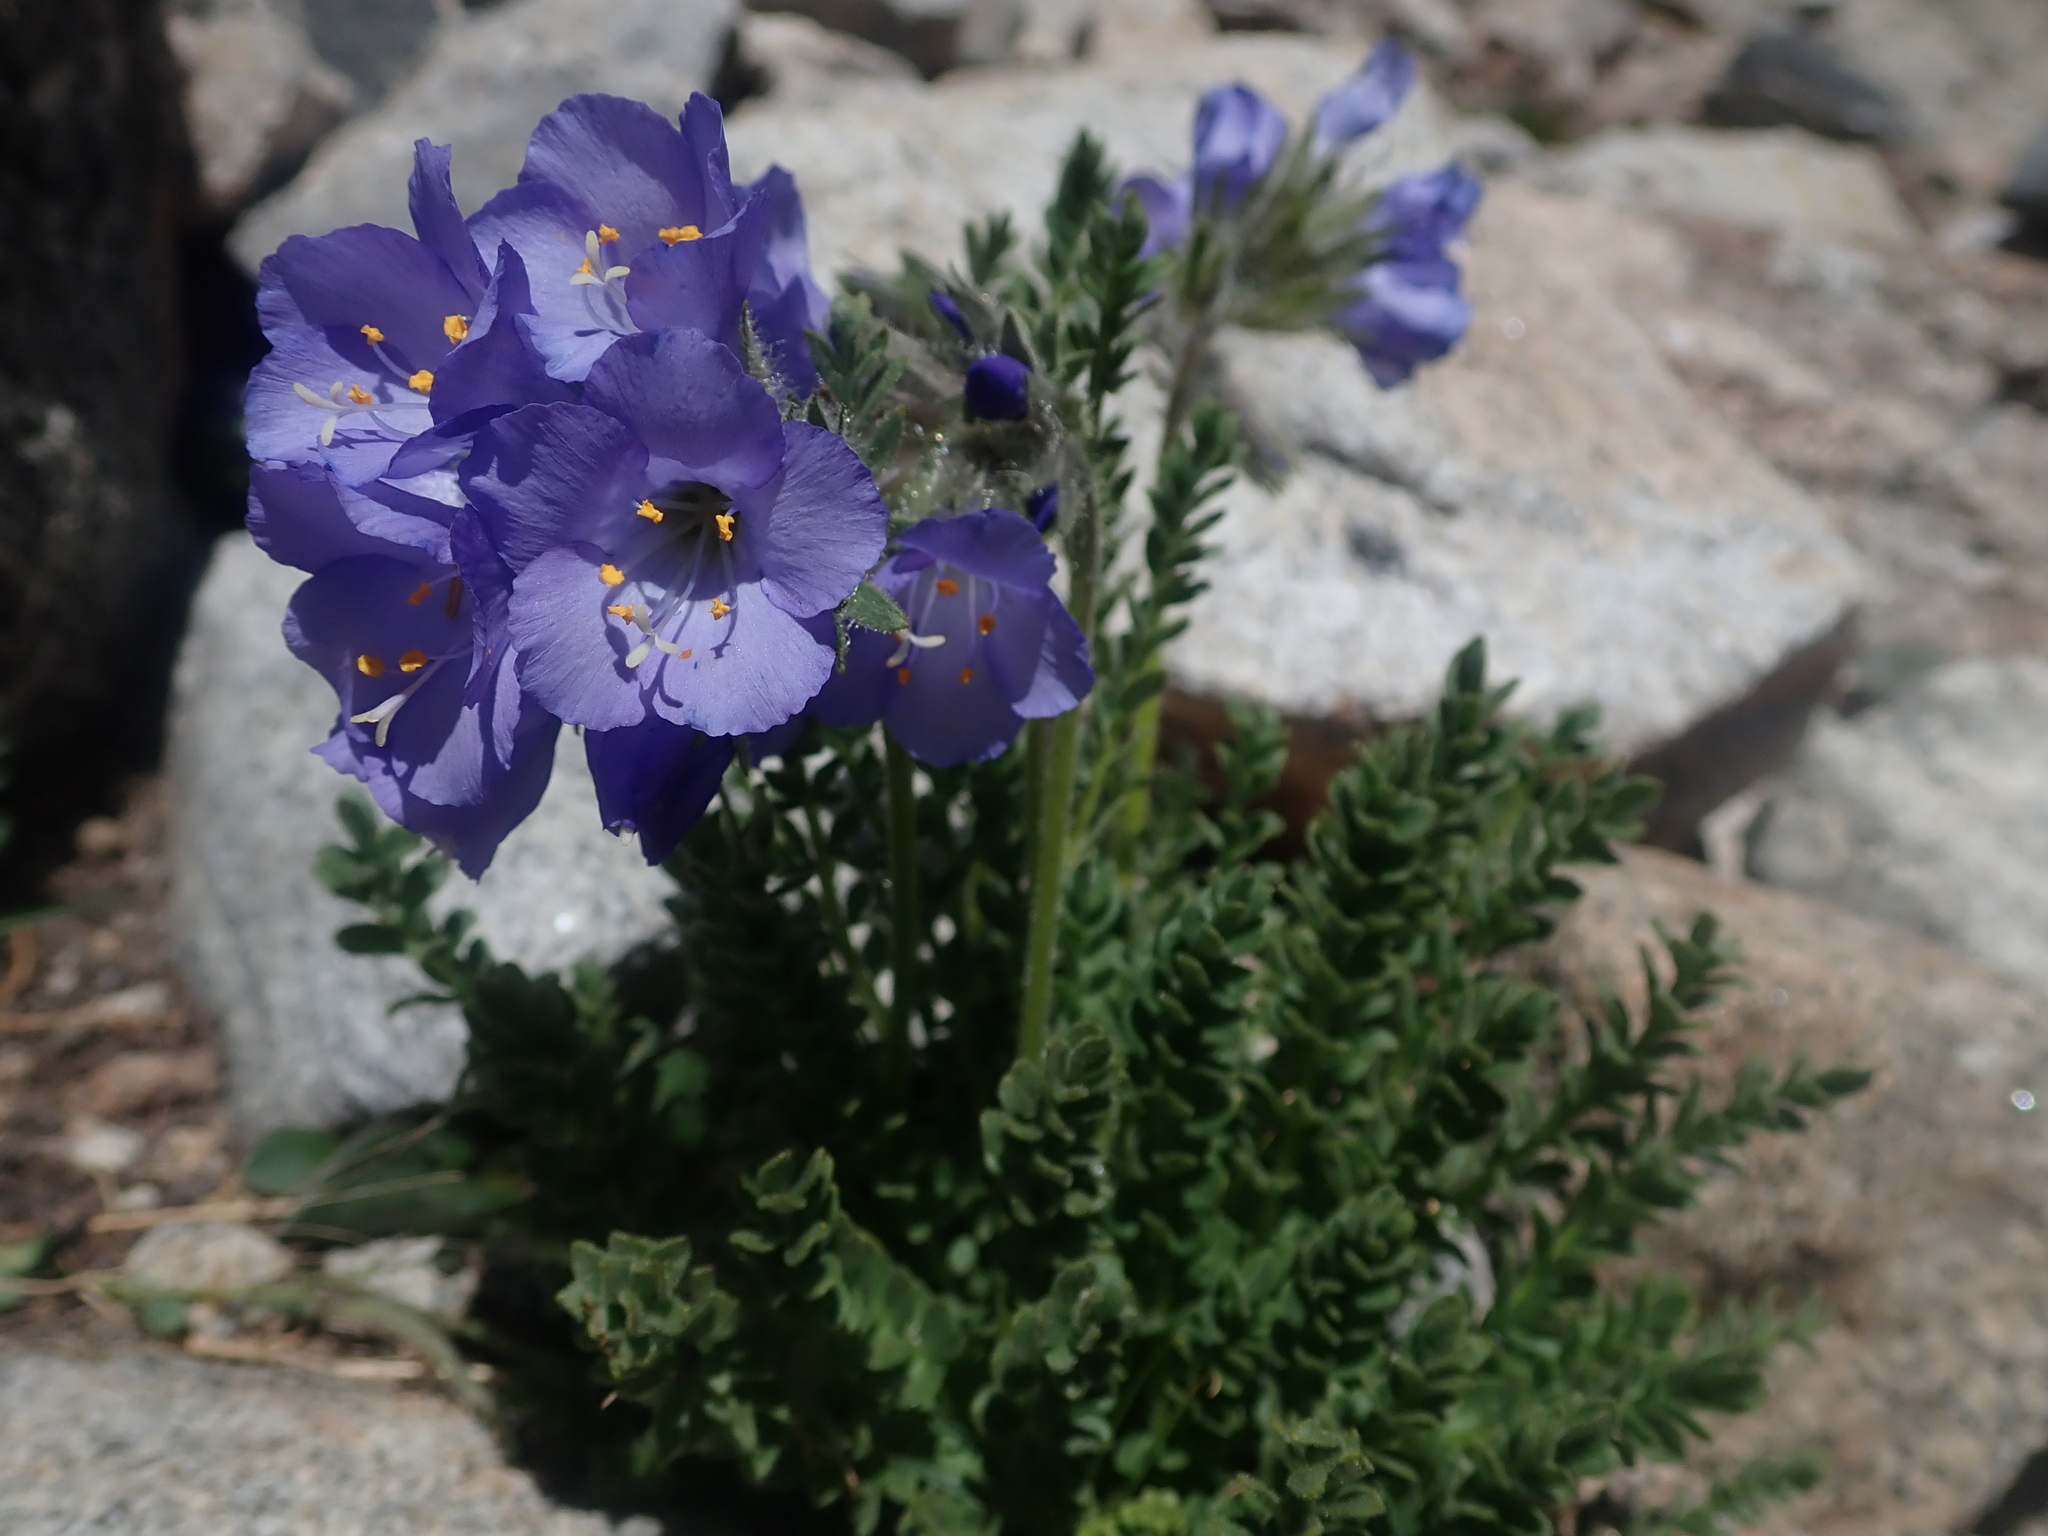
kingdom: Plantae
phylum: Tracheophyta
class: Magnoliopsida
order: Ericales
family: Polemoniaceae
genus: Polemonium
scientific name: Polemonium viscosum
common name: Skunk jacob's-ladder
